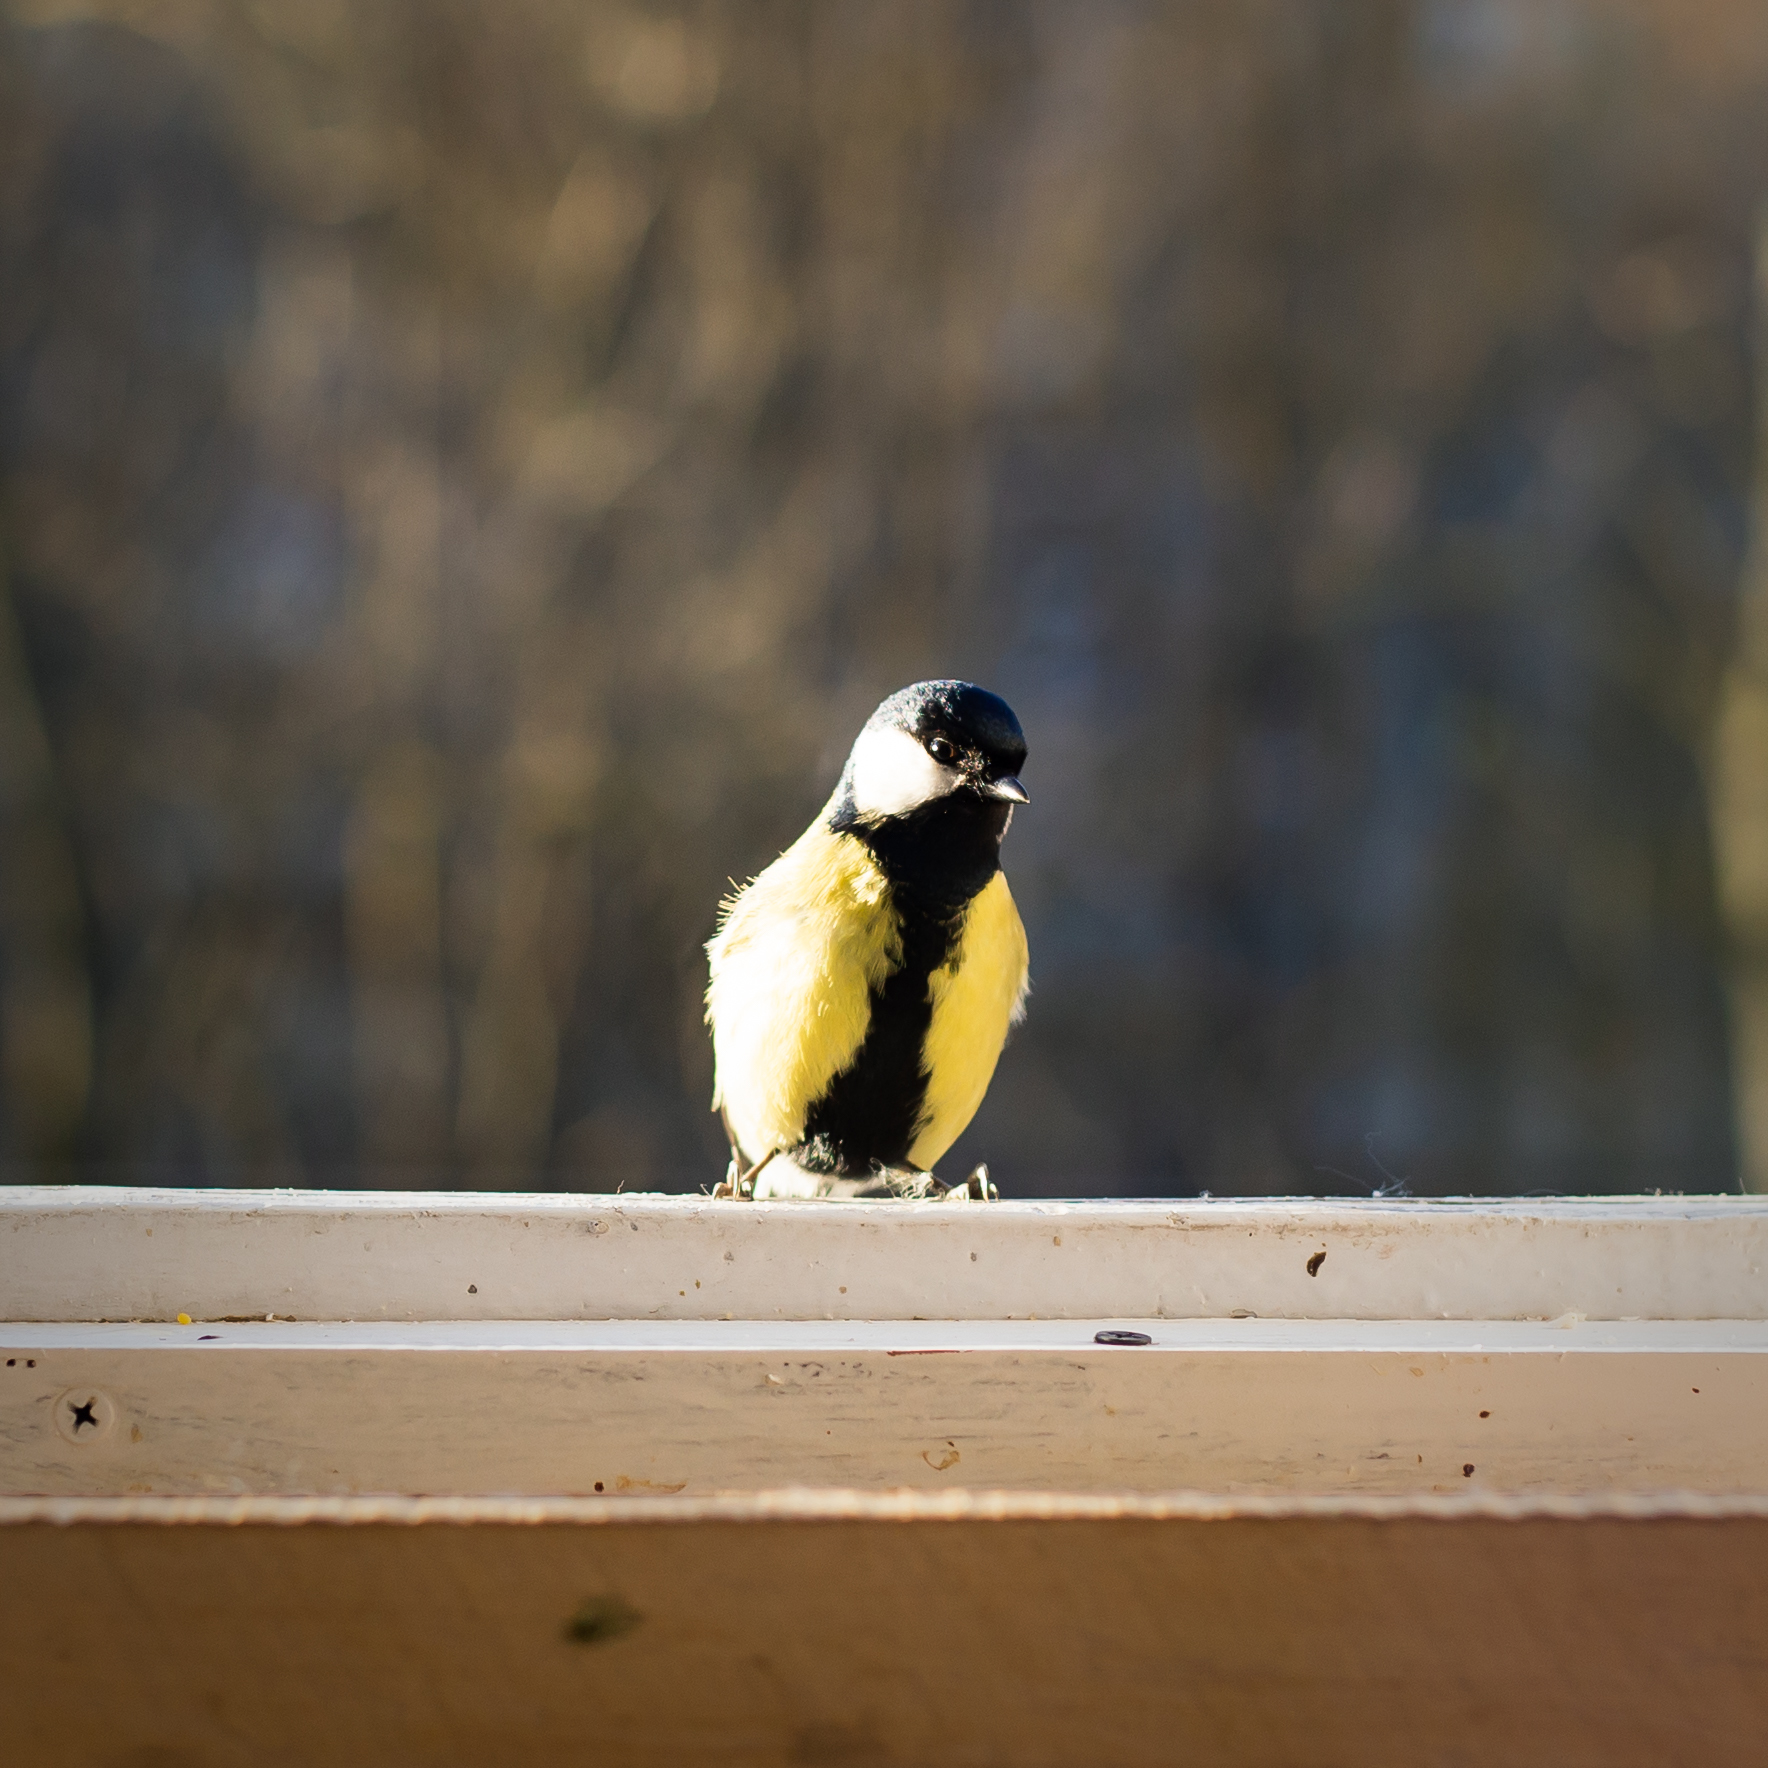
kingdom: Animalia
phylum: Chordata
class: Aves
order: Passeriformes
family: Paridae
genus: Parus
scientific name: Parus major
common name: Great tit
